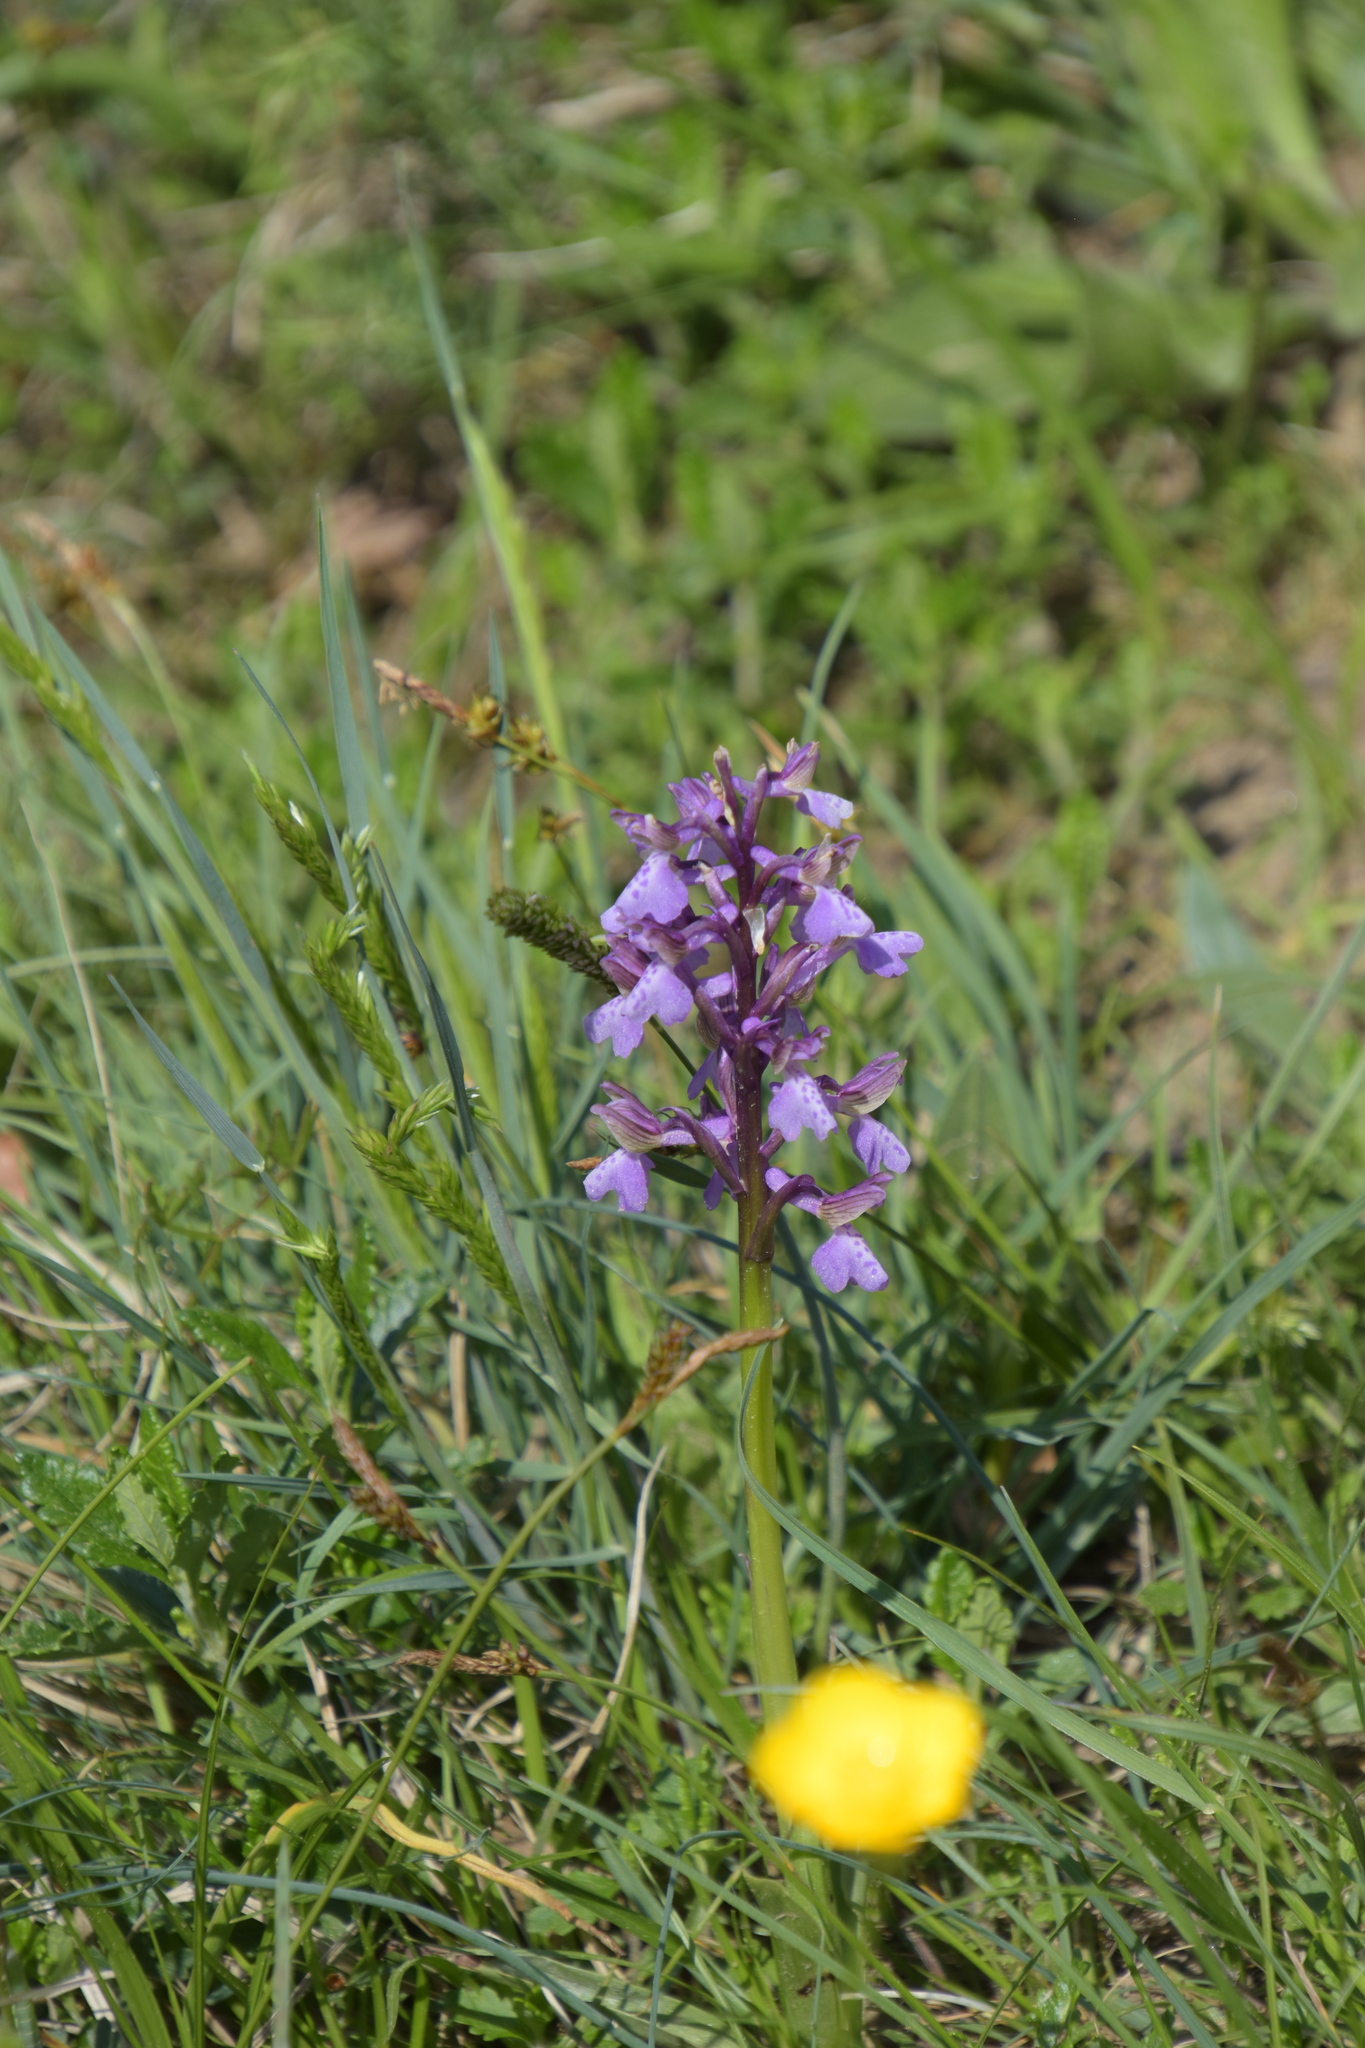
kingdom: Plantae
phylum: Tracheophyta
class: Liliopsida
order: Asparagales
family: Orchidaceae
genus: Anacamptis
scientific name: Anacamptis morio
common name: Green-winged orchid
